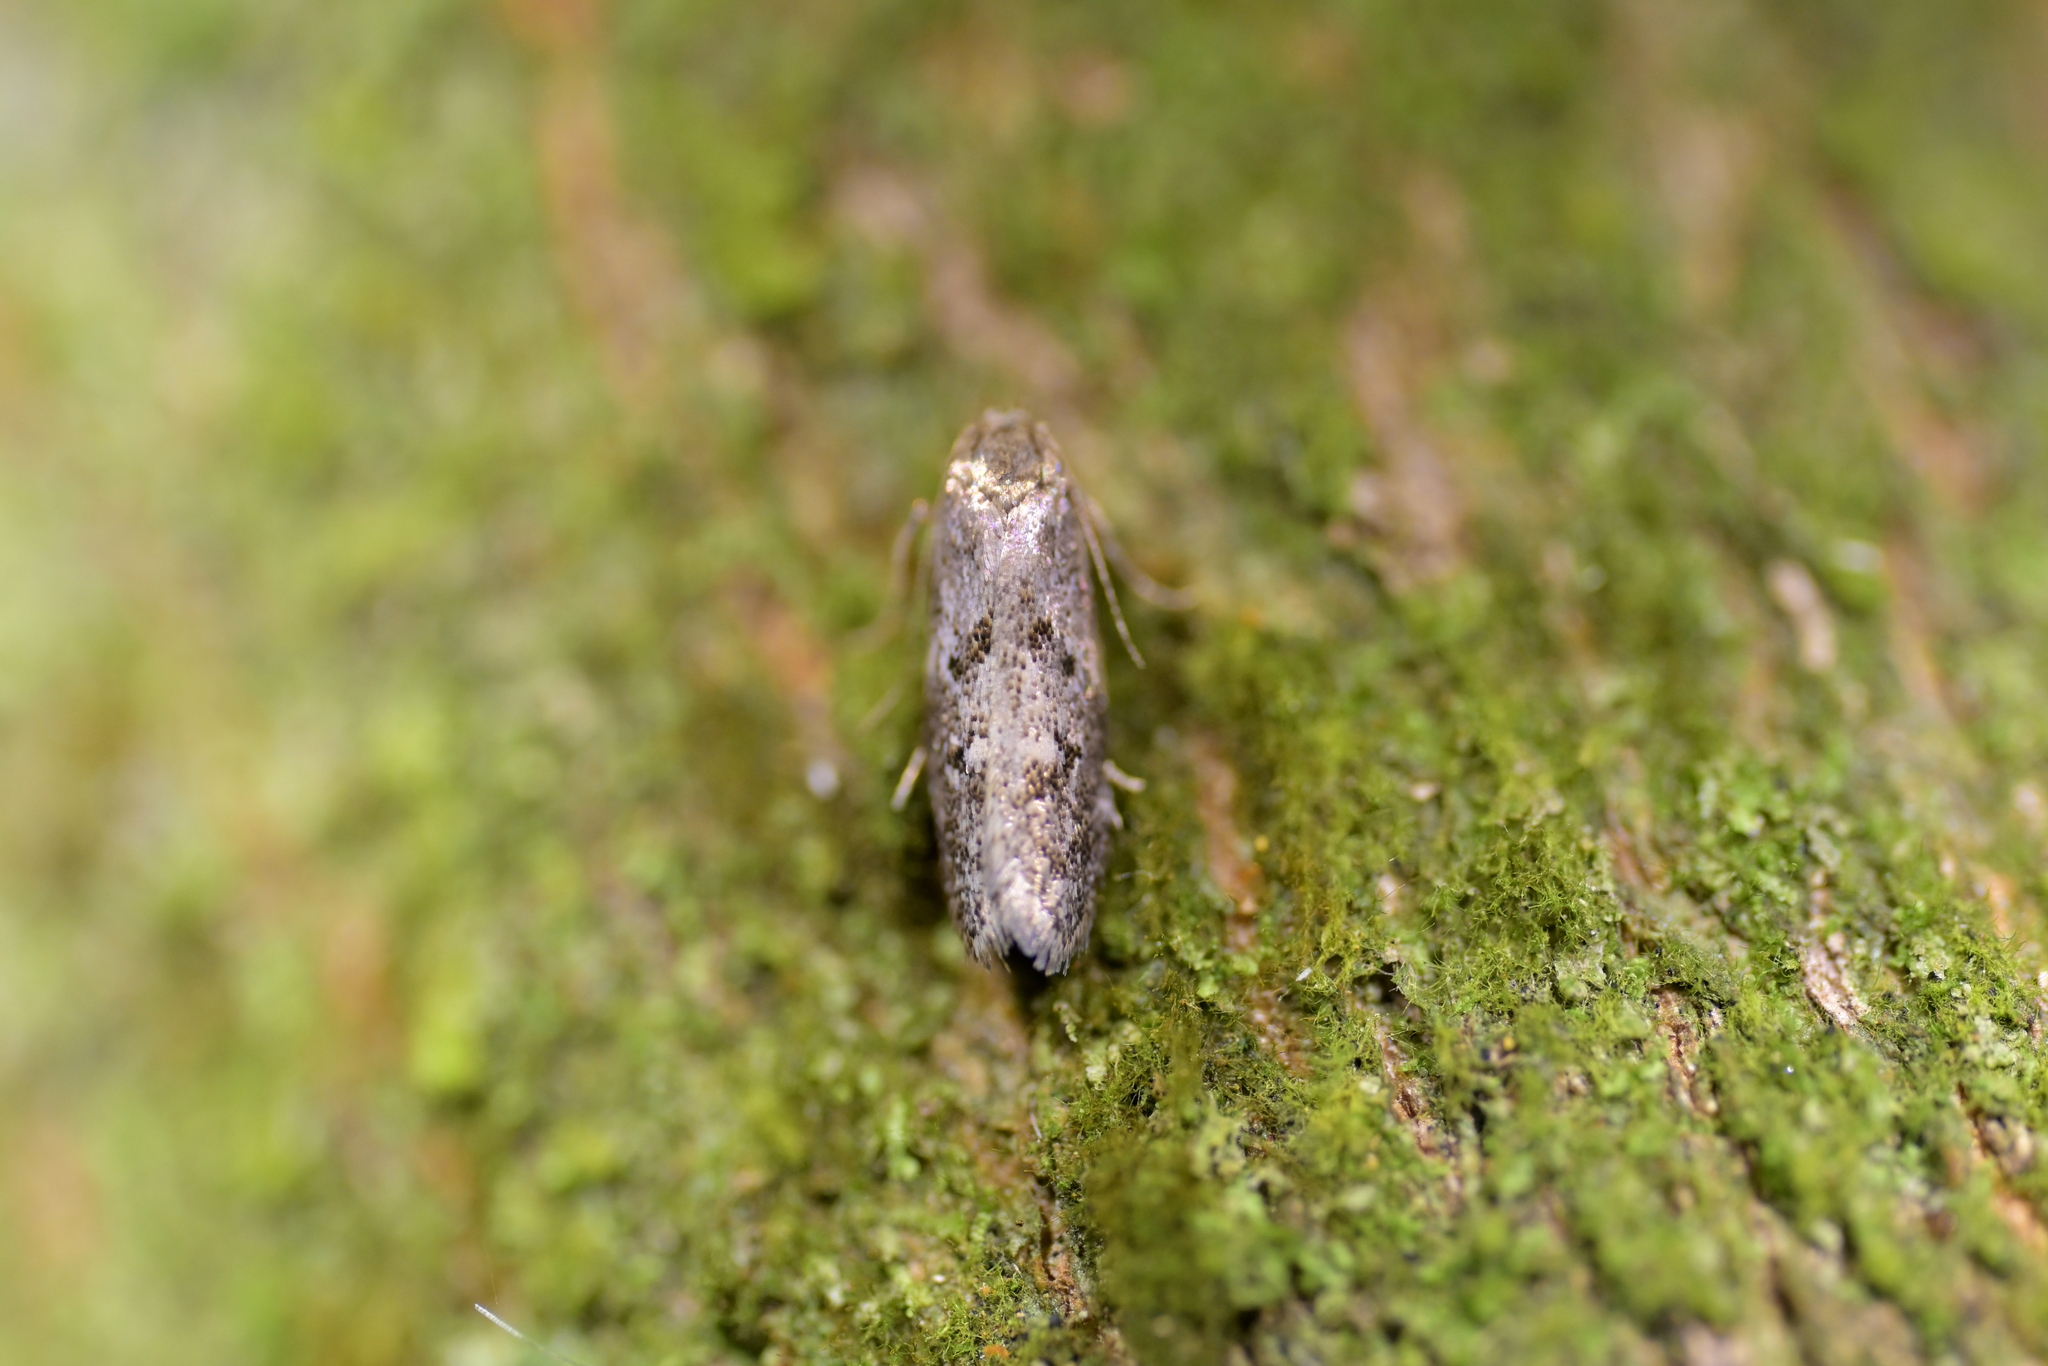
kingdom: Animalia
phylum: Arthropoda
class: Insecta
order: Lepidoptera
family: Oecophoridae
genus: Trachypepla
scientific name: Trachypepla photinella
